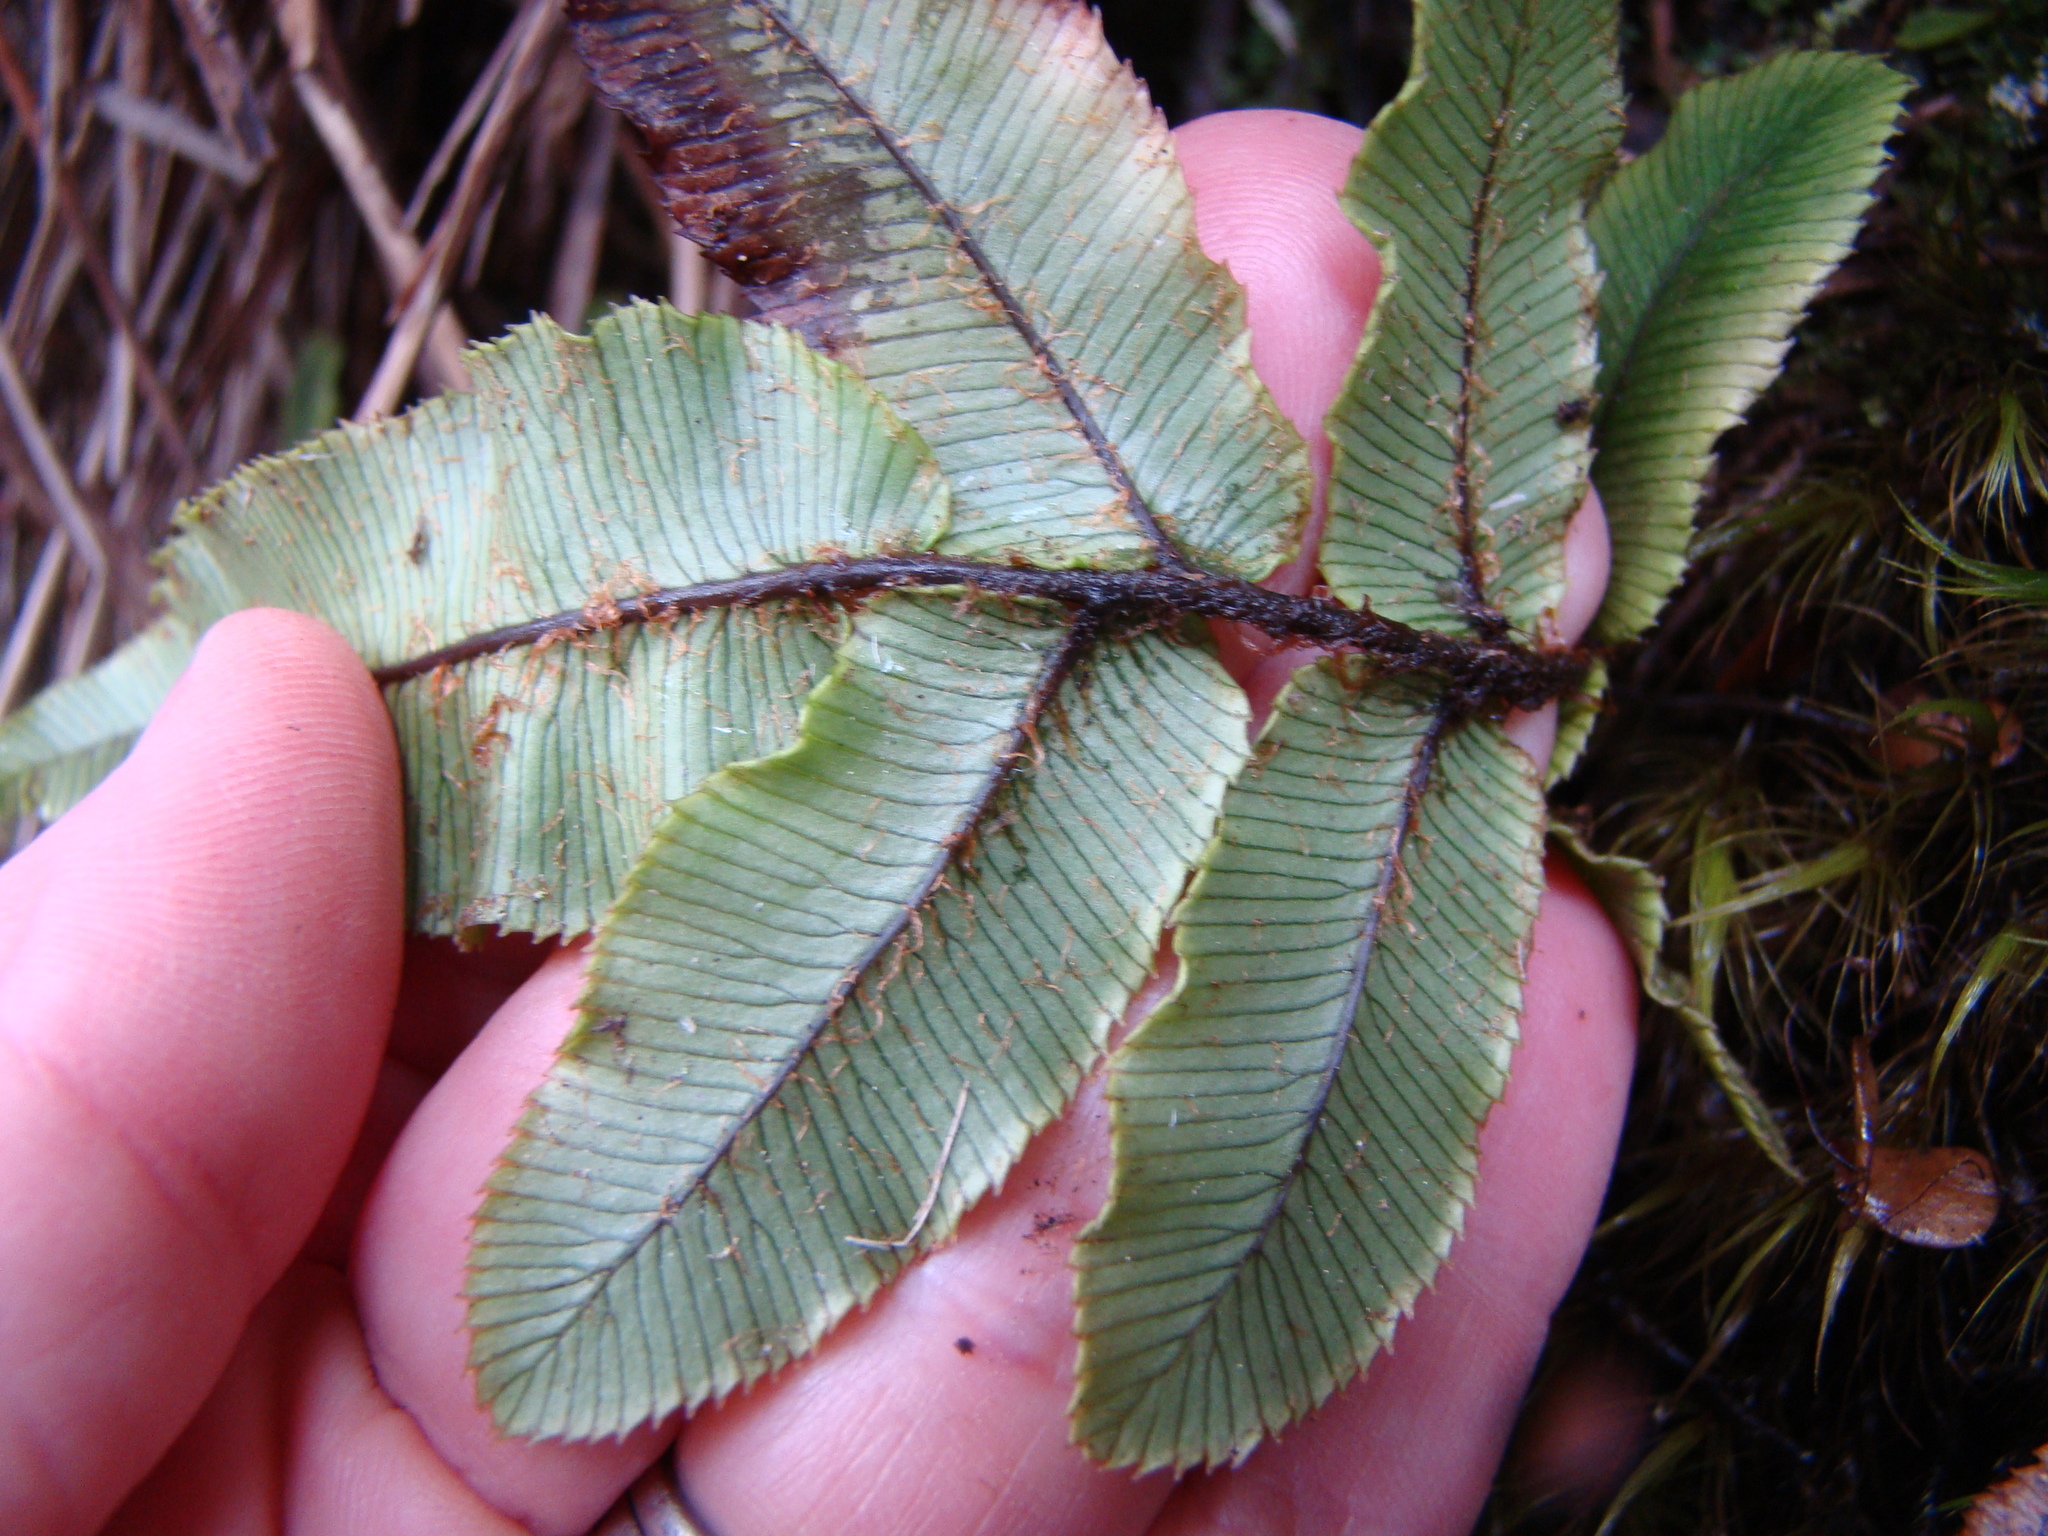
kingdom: Plantae
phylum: Tracheophyta
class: Polypodiopsida
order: Polypodiales
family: Blechnaceae
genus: Parablechnum
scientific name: Parablechnum procerum
